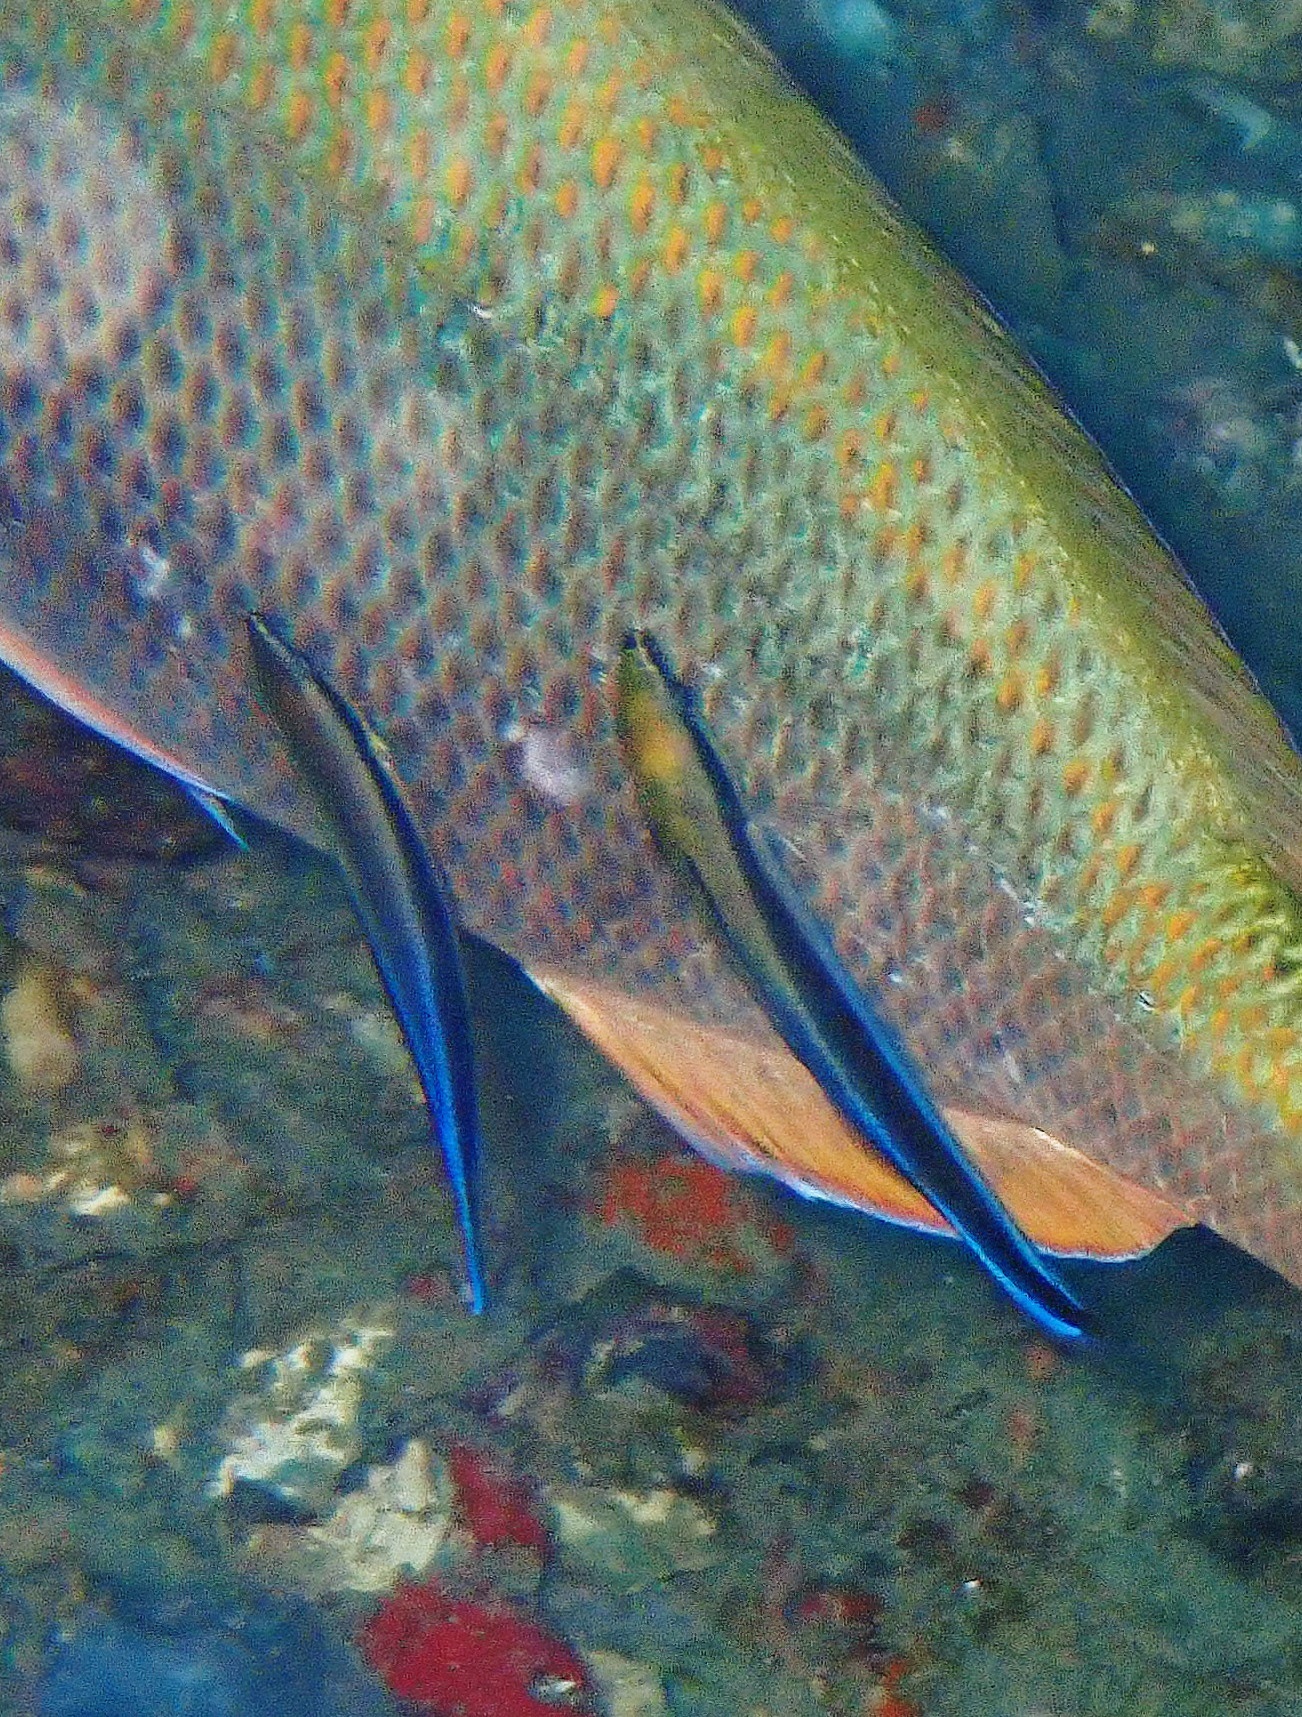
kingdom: Animalia
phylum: Chordata
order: Perciformes
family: Labridae
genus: Labroides
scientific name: Labroides dimidiatus
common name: Blue diesel wrasse
